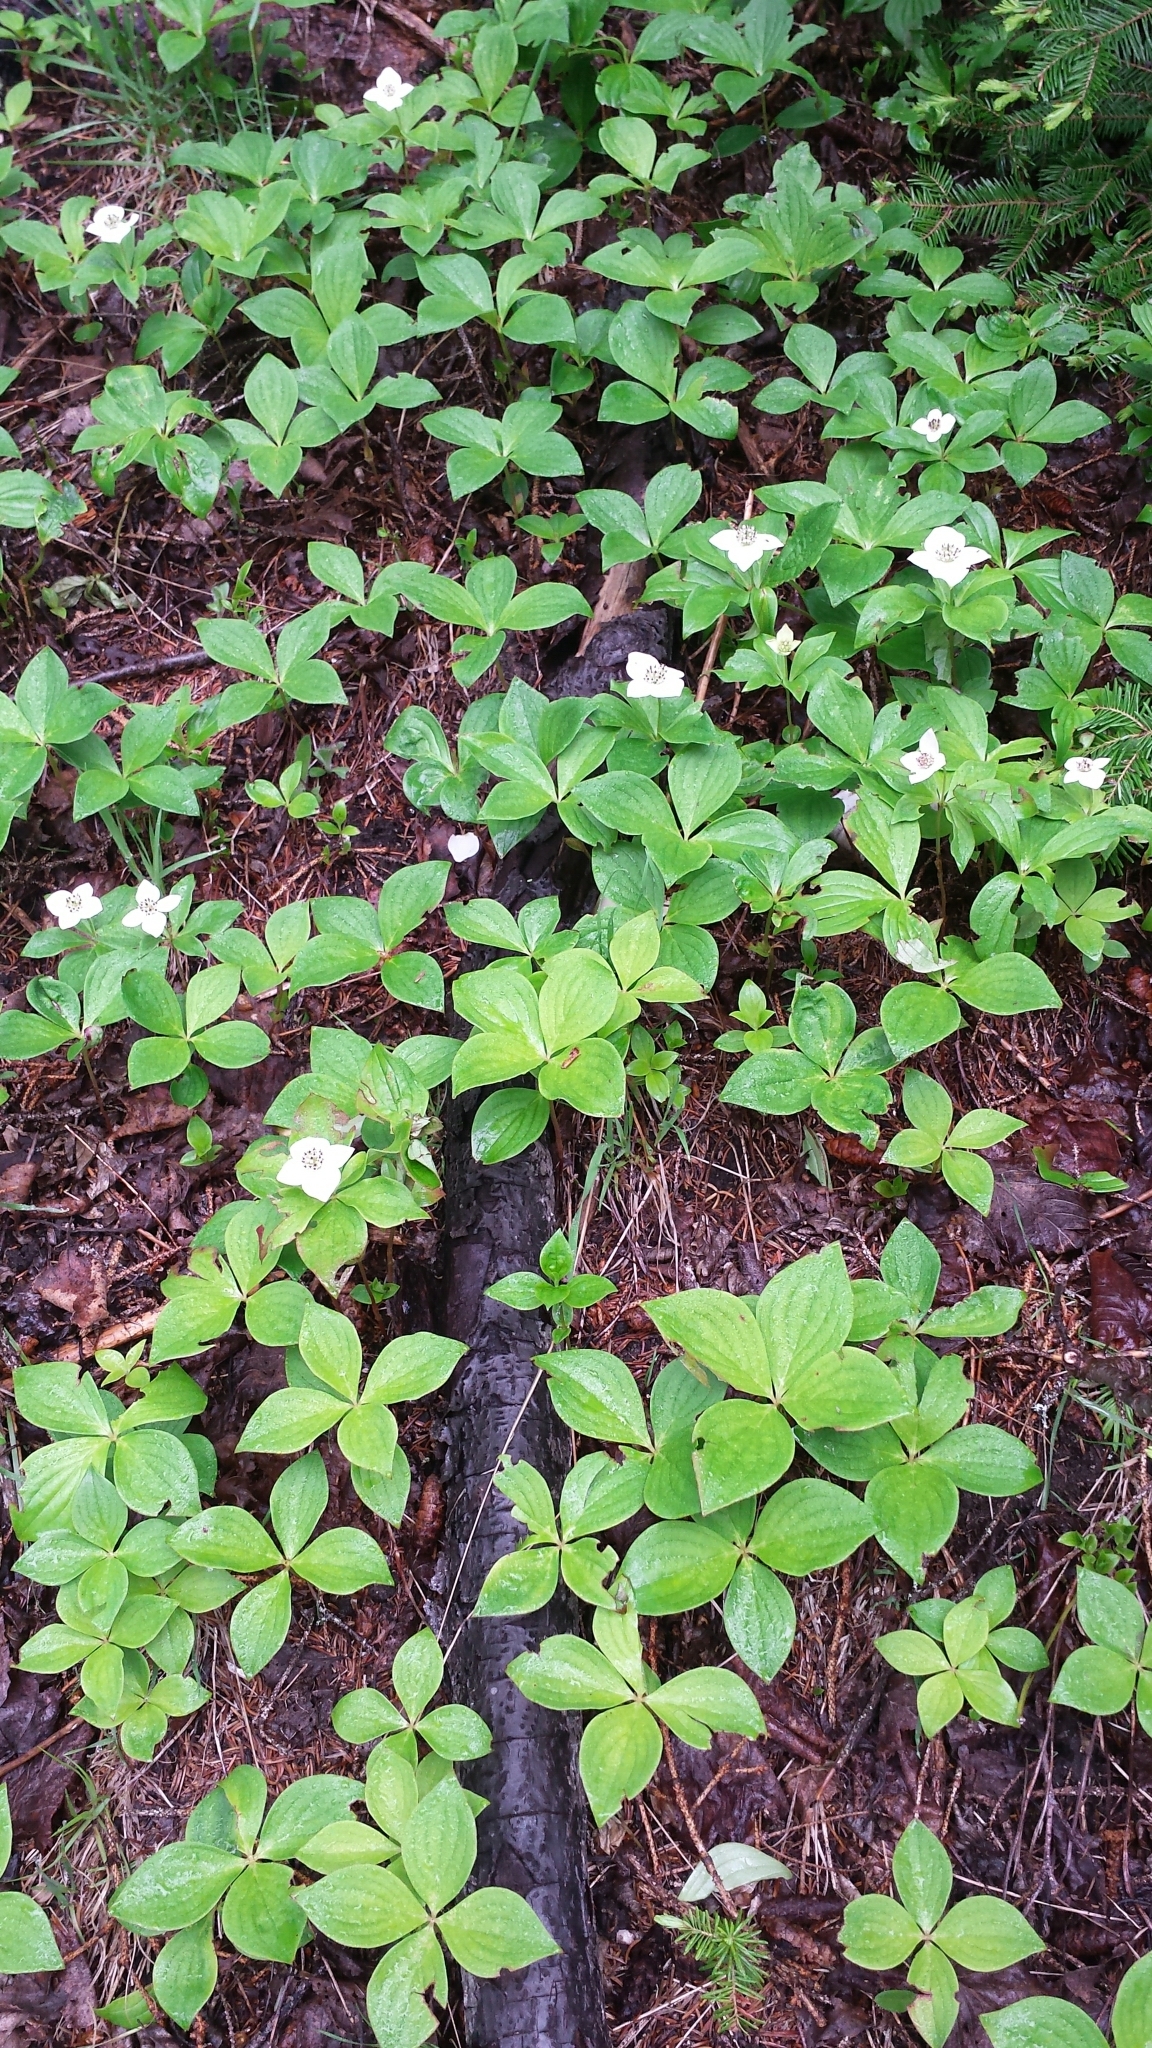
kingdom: Plantae
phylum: Tracheophyta
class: Magnoliopsida
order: Cornales
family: Cornaceae
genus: Cornus
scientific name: Cornus canadensis
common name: Creeping dogwood
